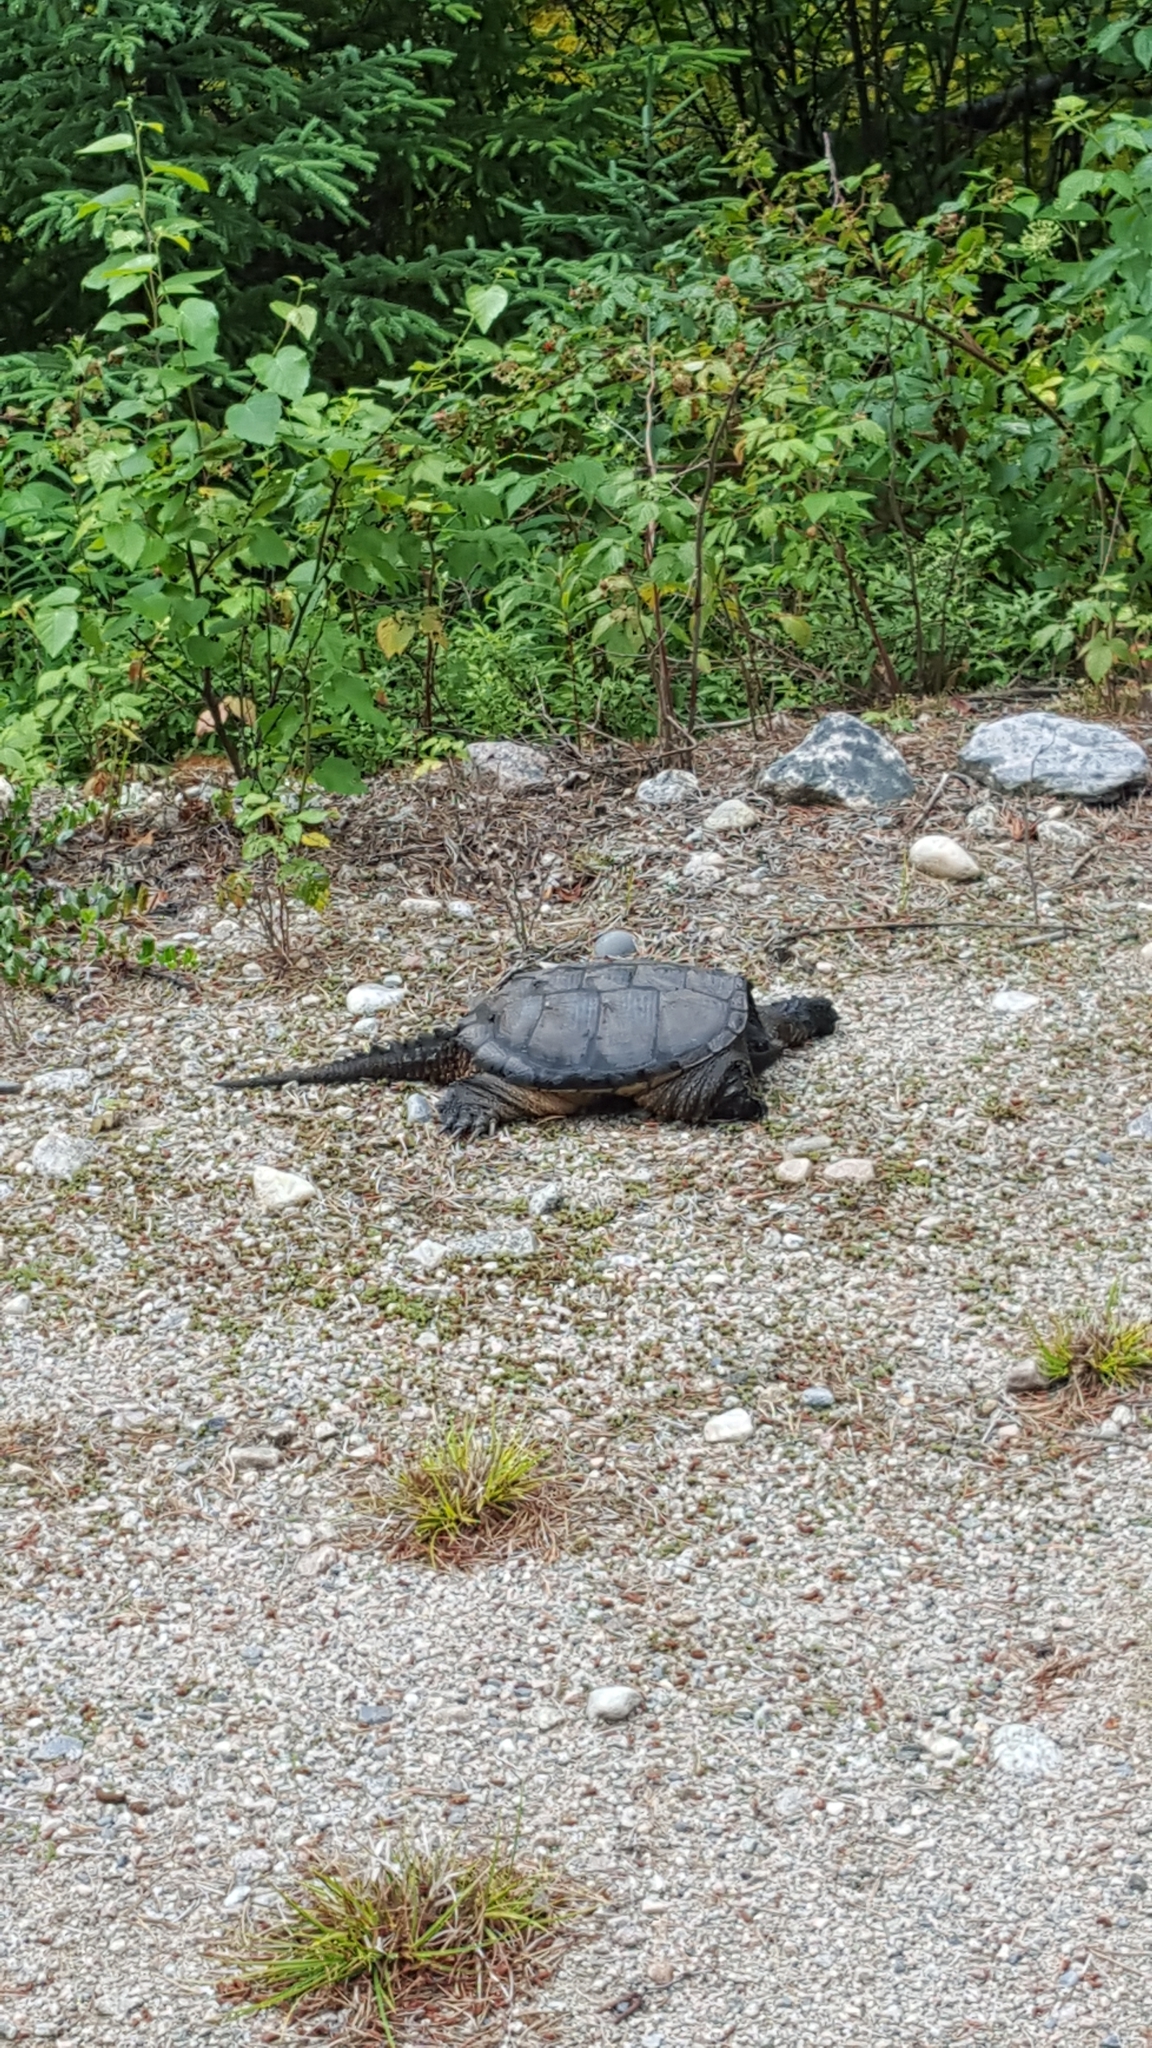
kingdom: Animalia
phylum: Chordata
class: Testudines
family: Chelydridae
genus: Chelydra
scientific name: Chelydra serpentina
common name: Common snapping turtle
